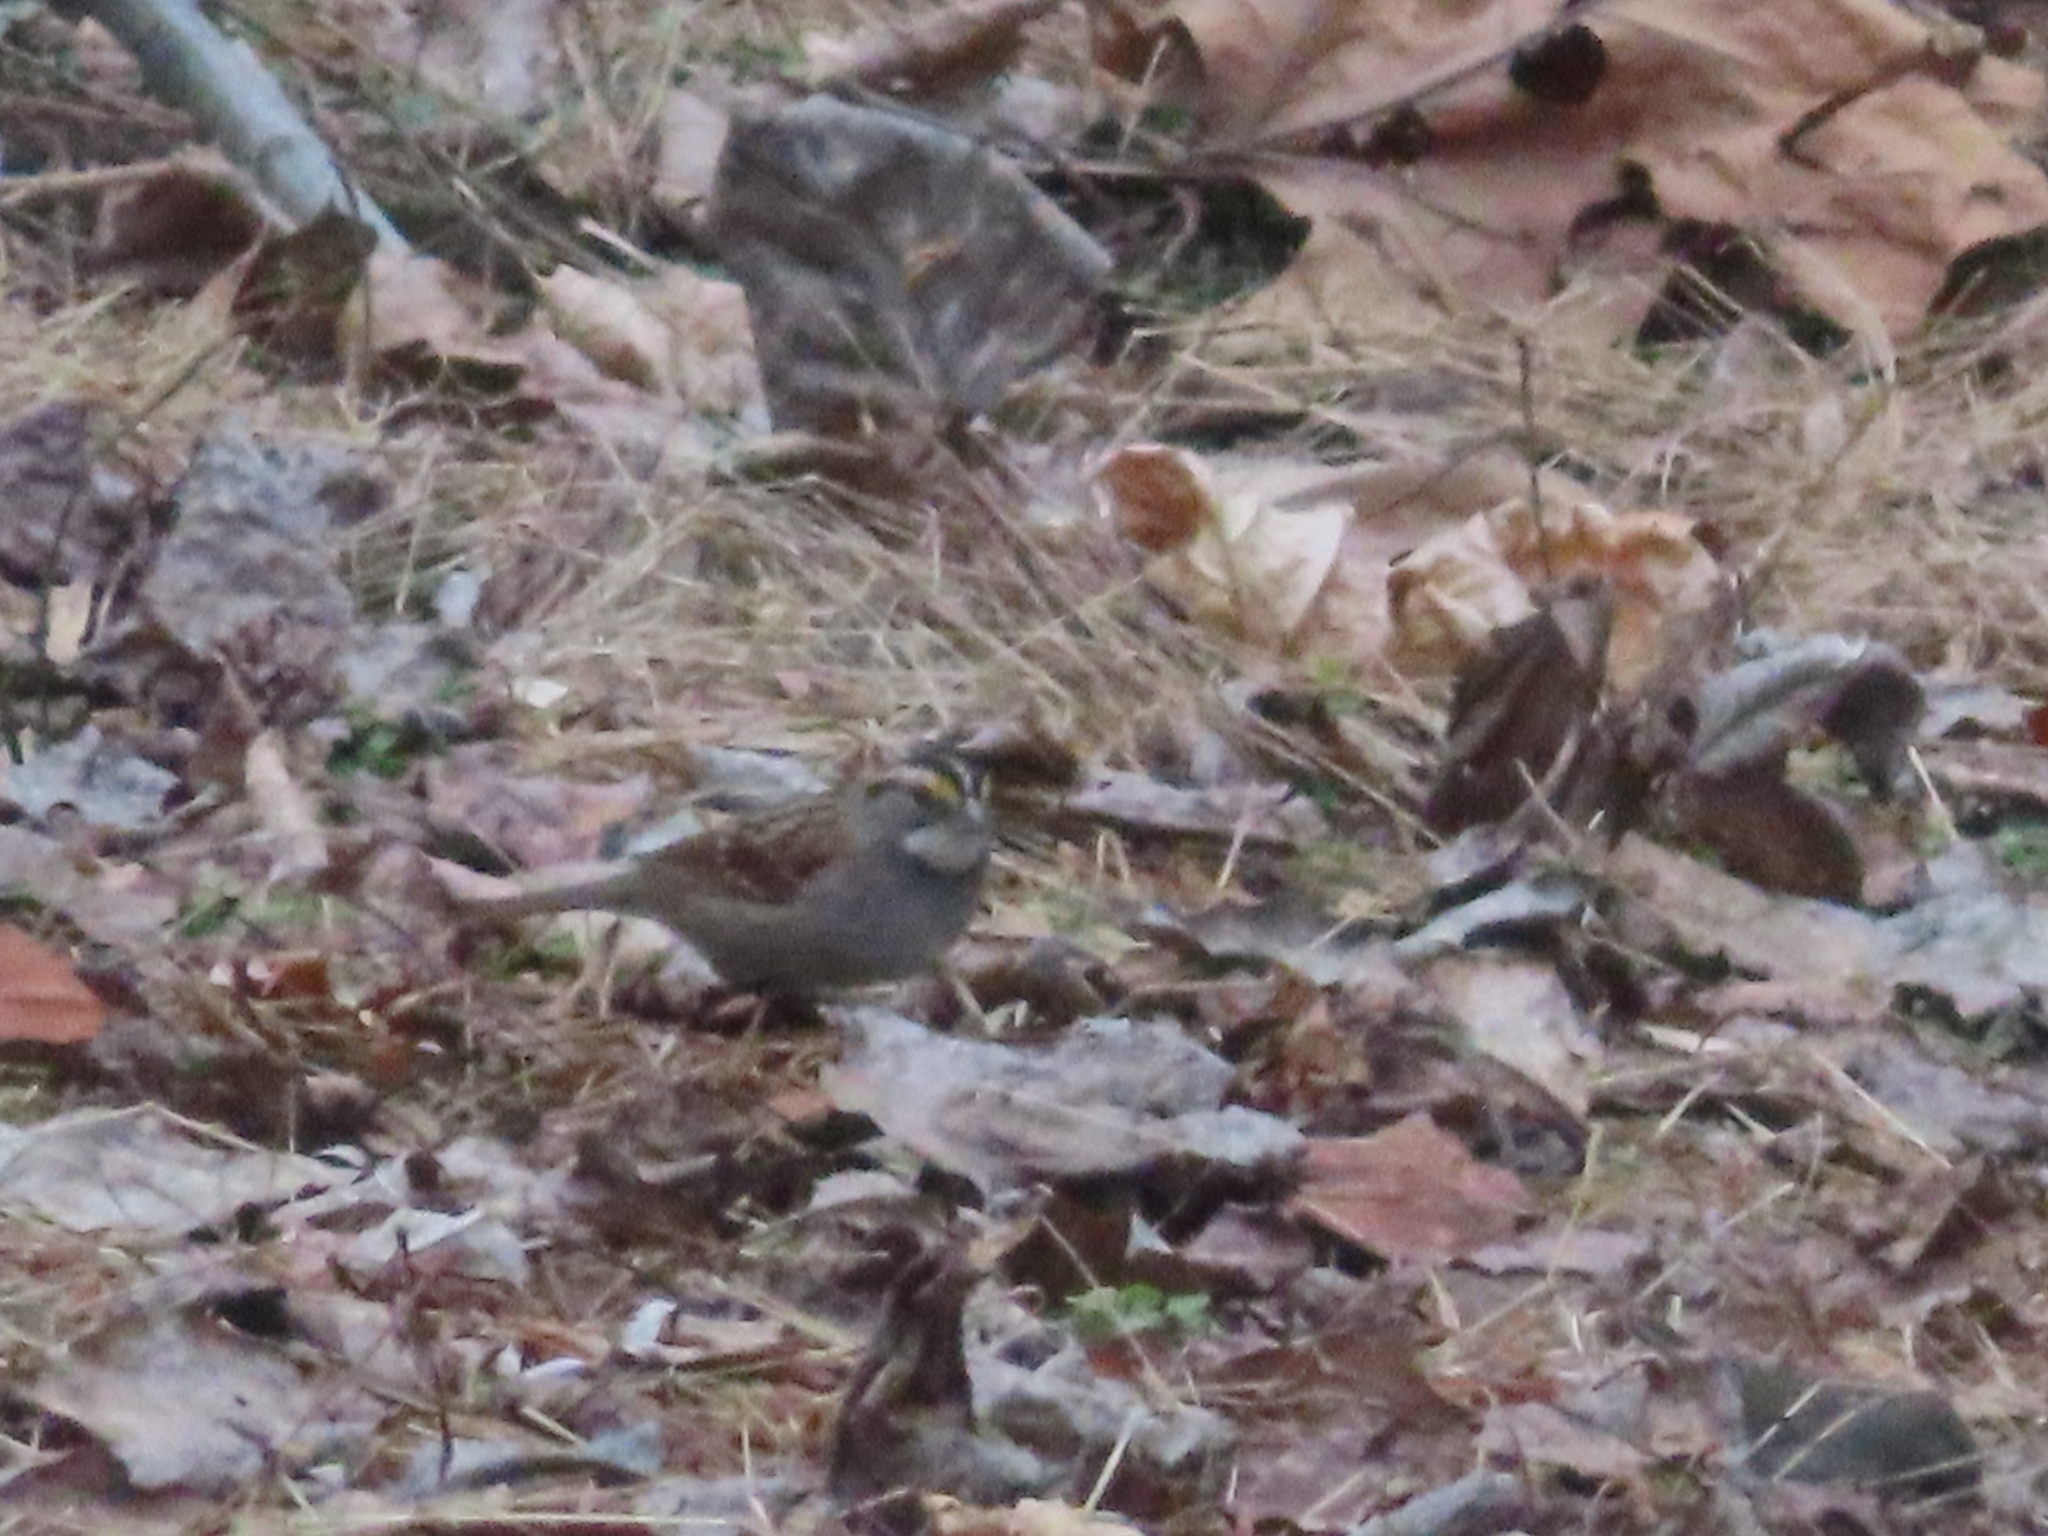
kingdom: Animalia
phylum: Chordata
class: Aves
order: Passeriformes
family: Passerellidae
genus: Zonotrichia
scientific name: Zonotrichia albicollis
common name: White-throated sparrow
